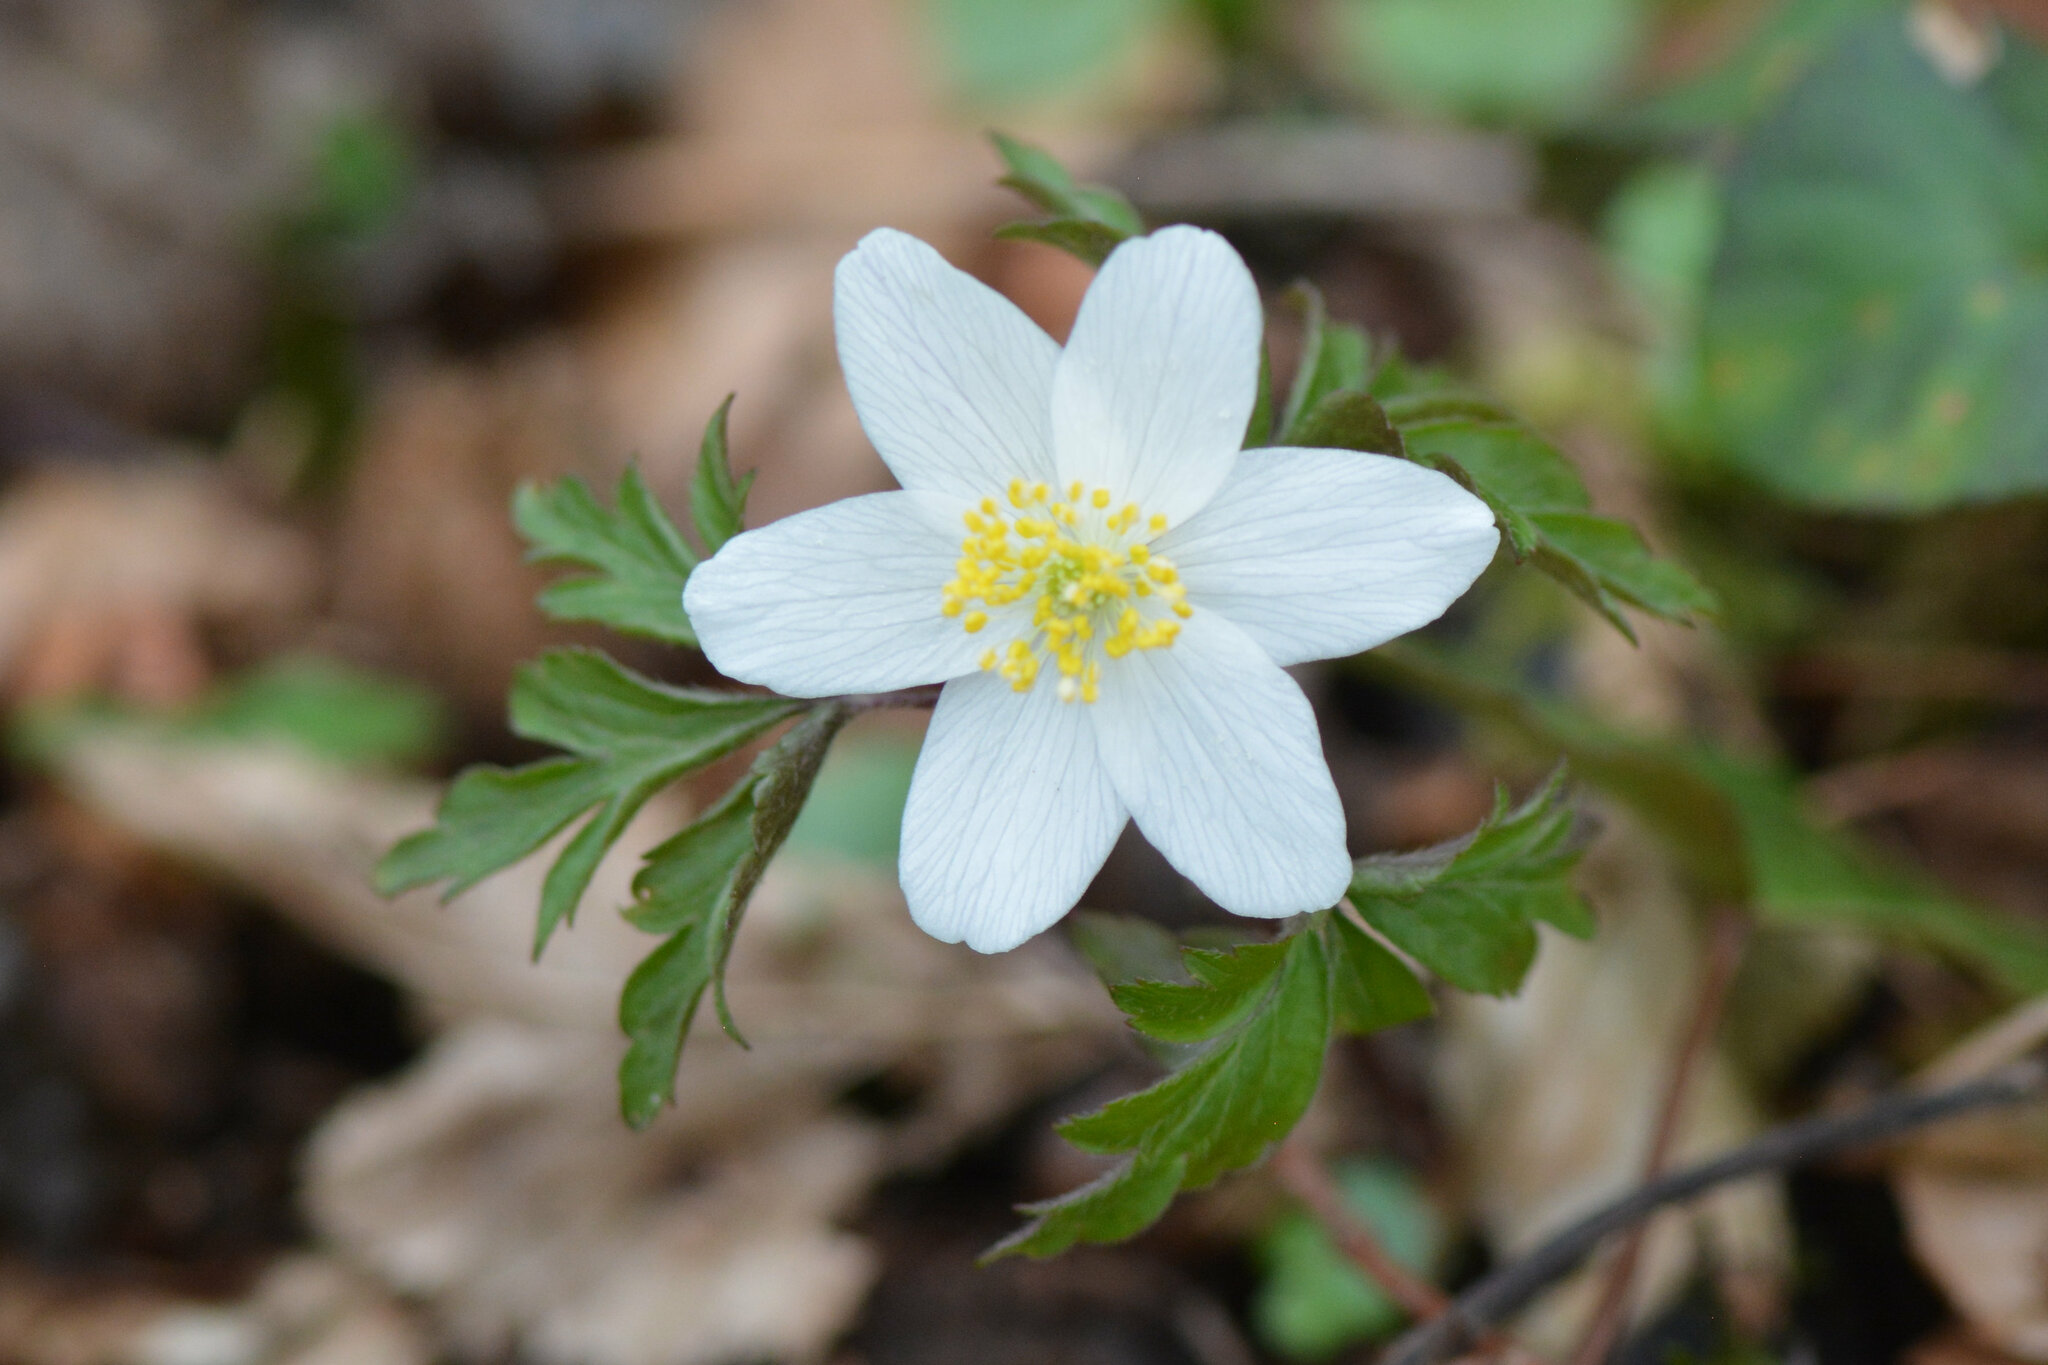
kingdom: Plantae
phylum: Tracheophyta
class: Magnoliopsida
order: Ranunculales
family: Ranunculaceae
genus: Anemone
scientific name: Anemone nemorosa
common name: Wood anemone
